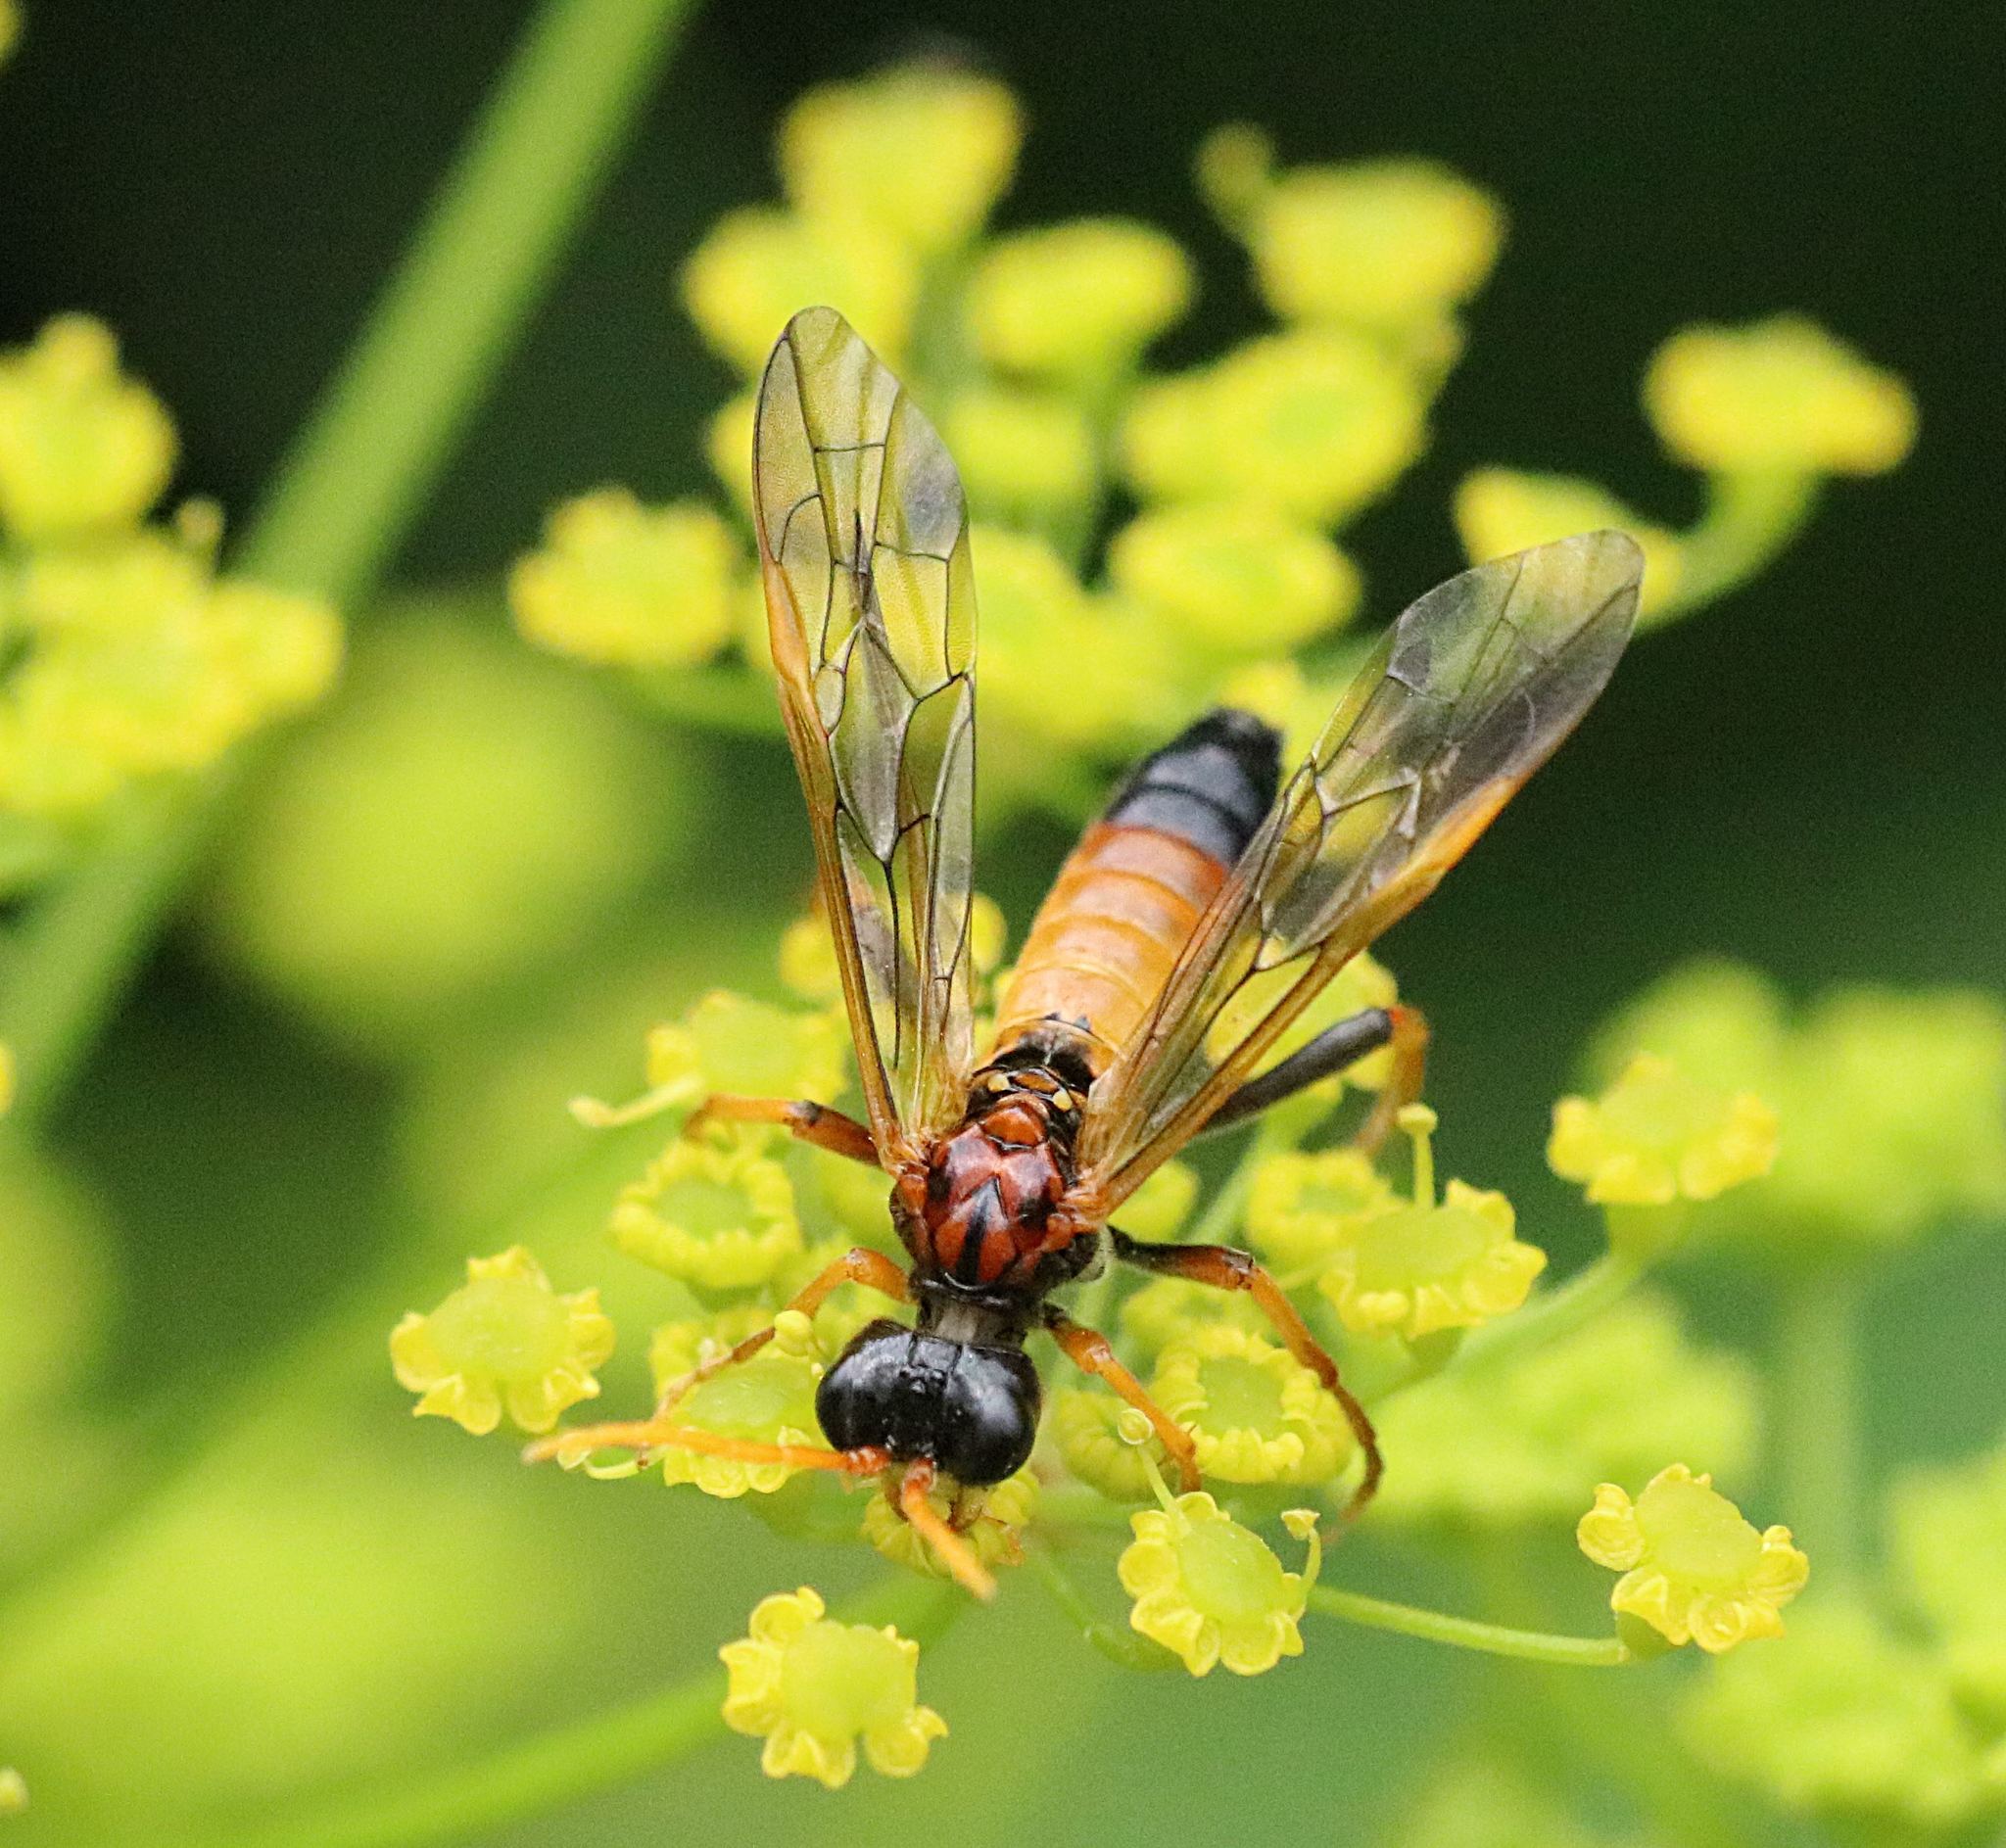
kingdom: Animalia
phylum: Arthropoda
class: Insecta
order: Hymenoptera
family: Tenthredinidae
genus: Tenthredo
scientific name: Tenthredo campestris
